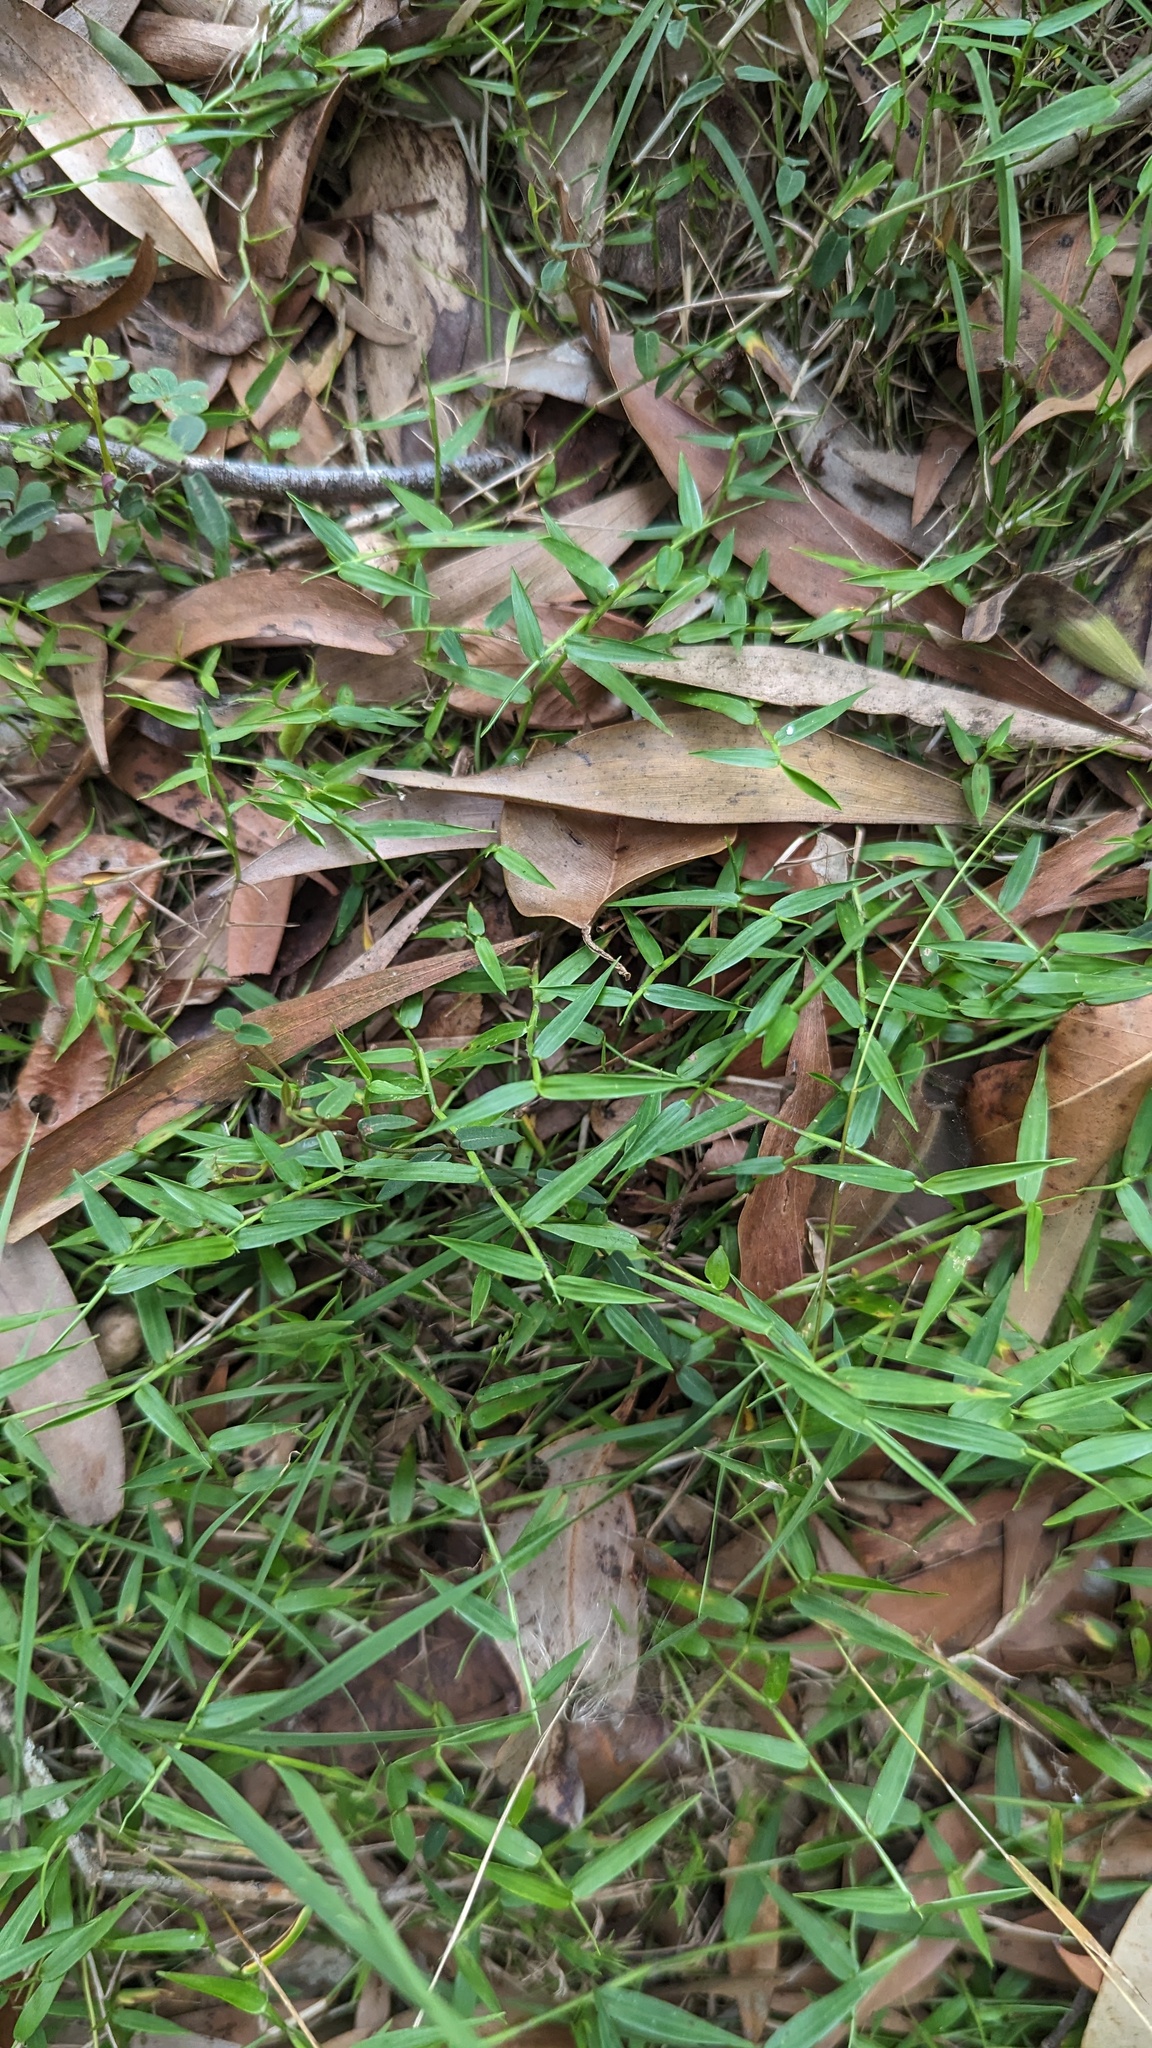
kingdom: Plantae
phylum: Tracheophyta
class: Liliopsida
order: Poales
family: Poaceae
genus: Ottochloa
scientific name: Ottochloa gracillima
